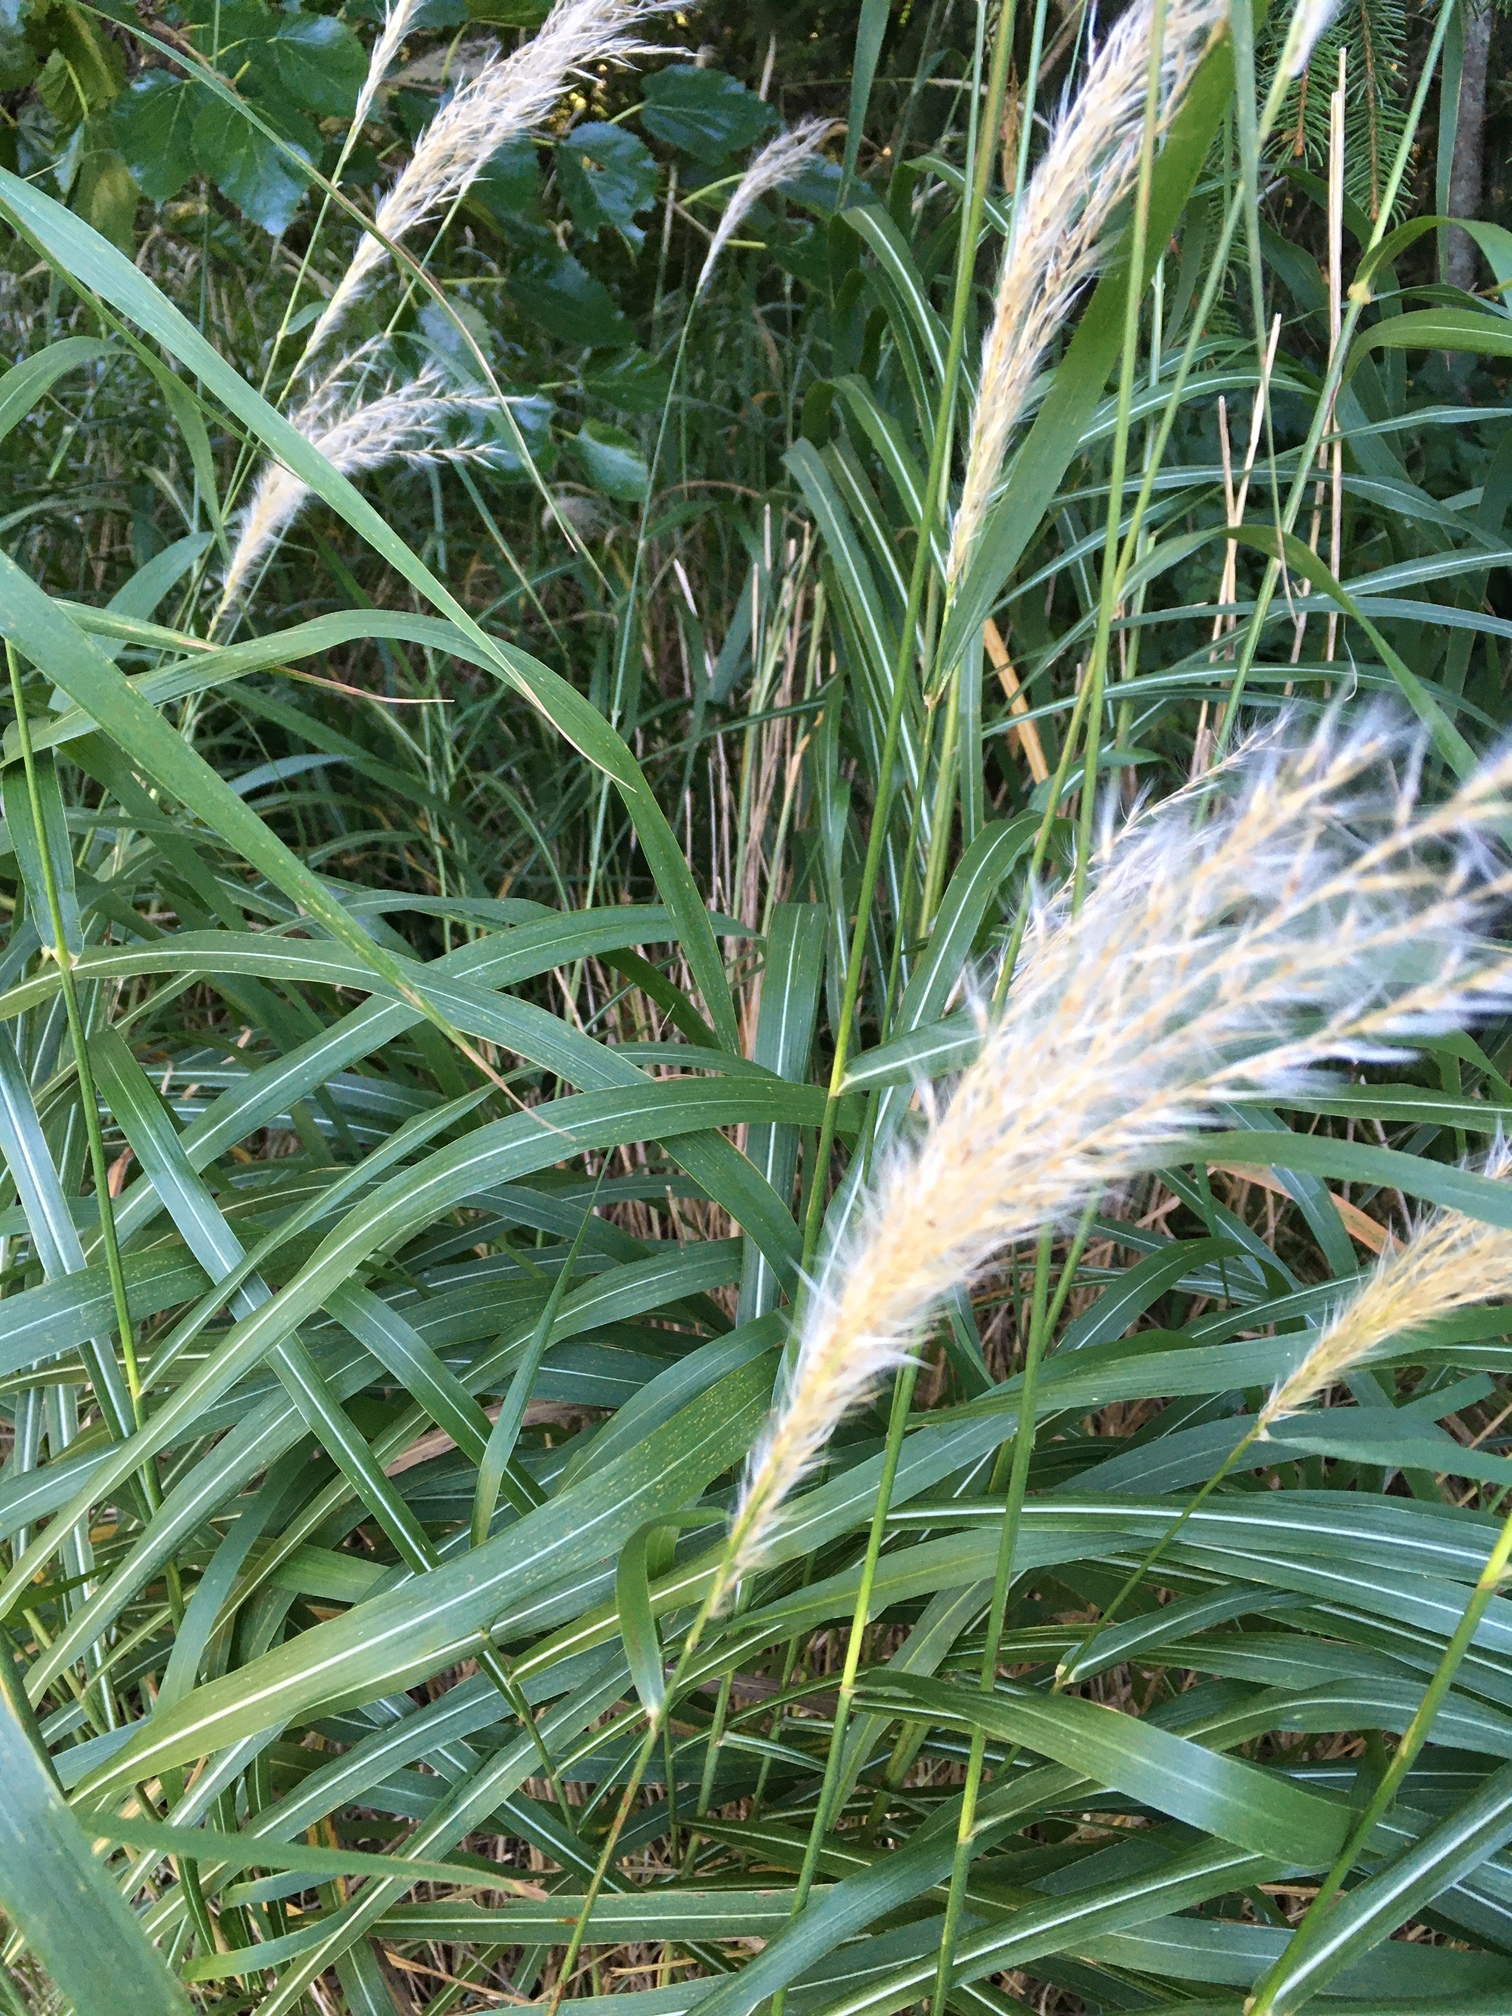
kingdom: Plantae
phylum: Tracheophyta
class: Liliopsida
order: Poales
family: Poaceae
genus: Miscanthus
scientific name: Miscanthus sinensis
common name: Chinese silvergrass
